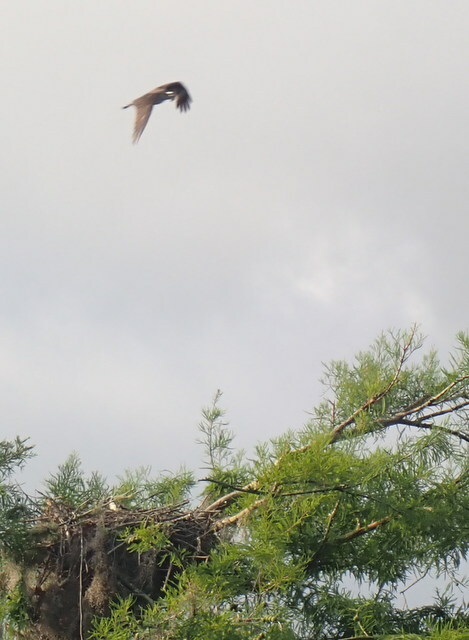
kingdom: Animalia
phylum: Chordata
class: Aves
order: Accipitriformes
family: Pandionidae
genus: Pandion
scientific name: Pandion haliaetus
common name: Osprey
